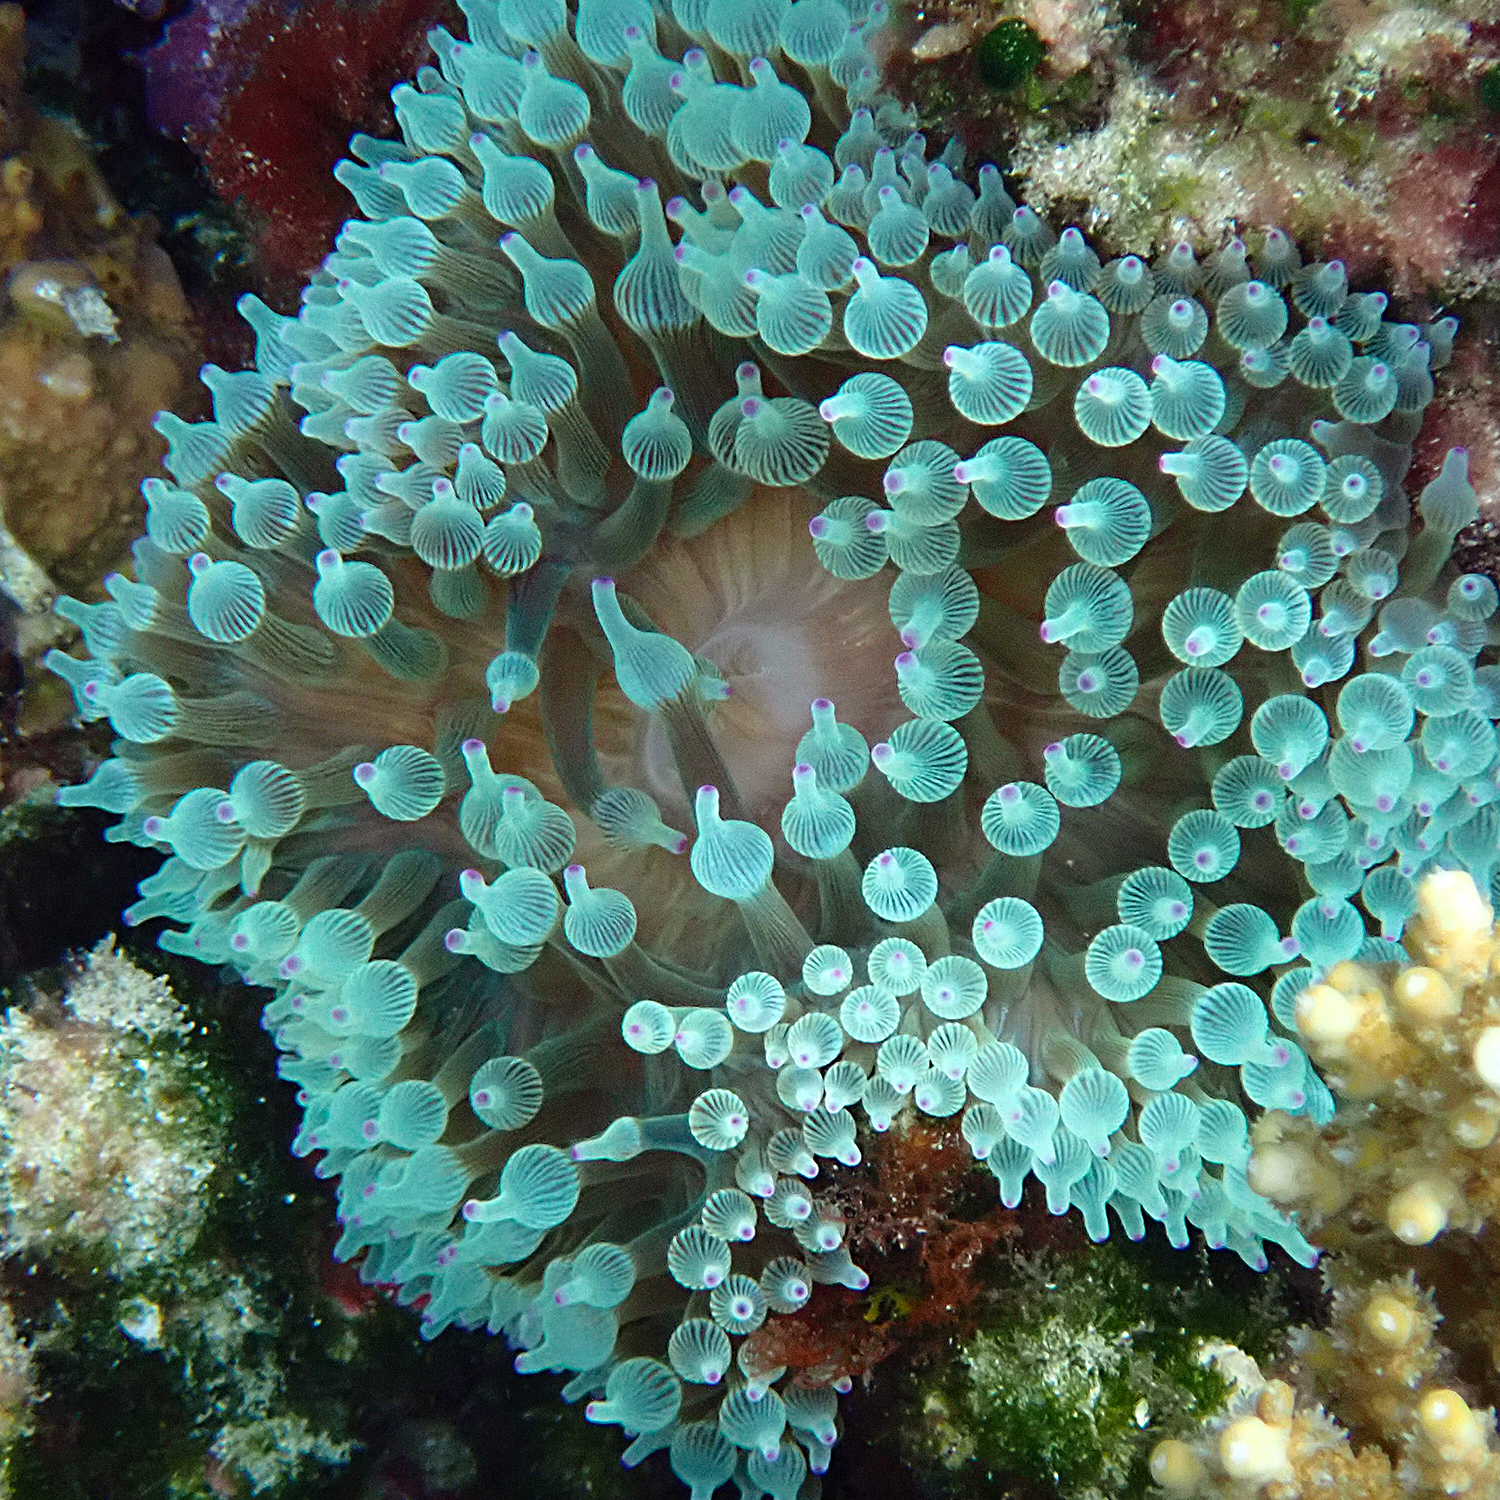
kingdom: Animalia
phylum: Cnidaria
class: Anthozoa
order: Actiniaria
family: Actiniidae
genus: Entacmaea
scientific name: Entacmaea quadricolor
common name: Bulb tentacle sea anemone
